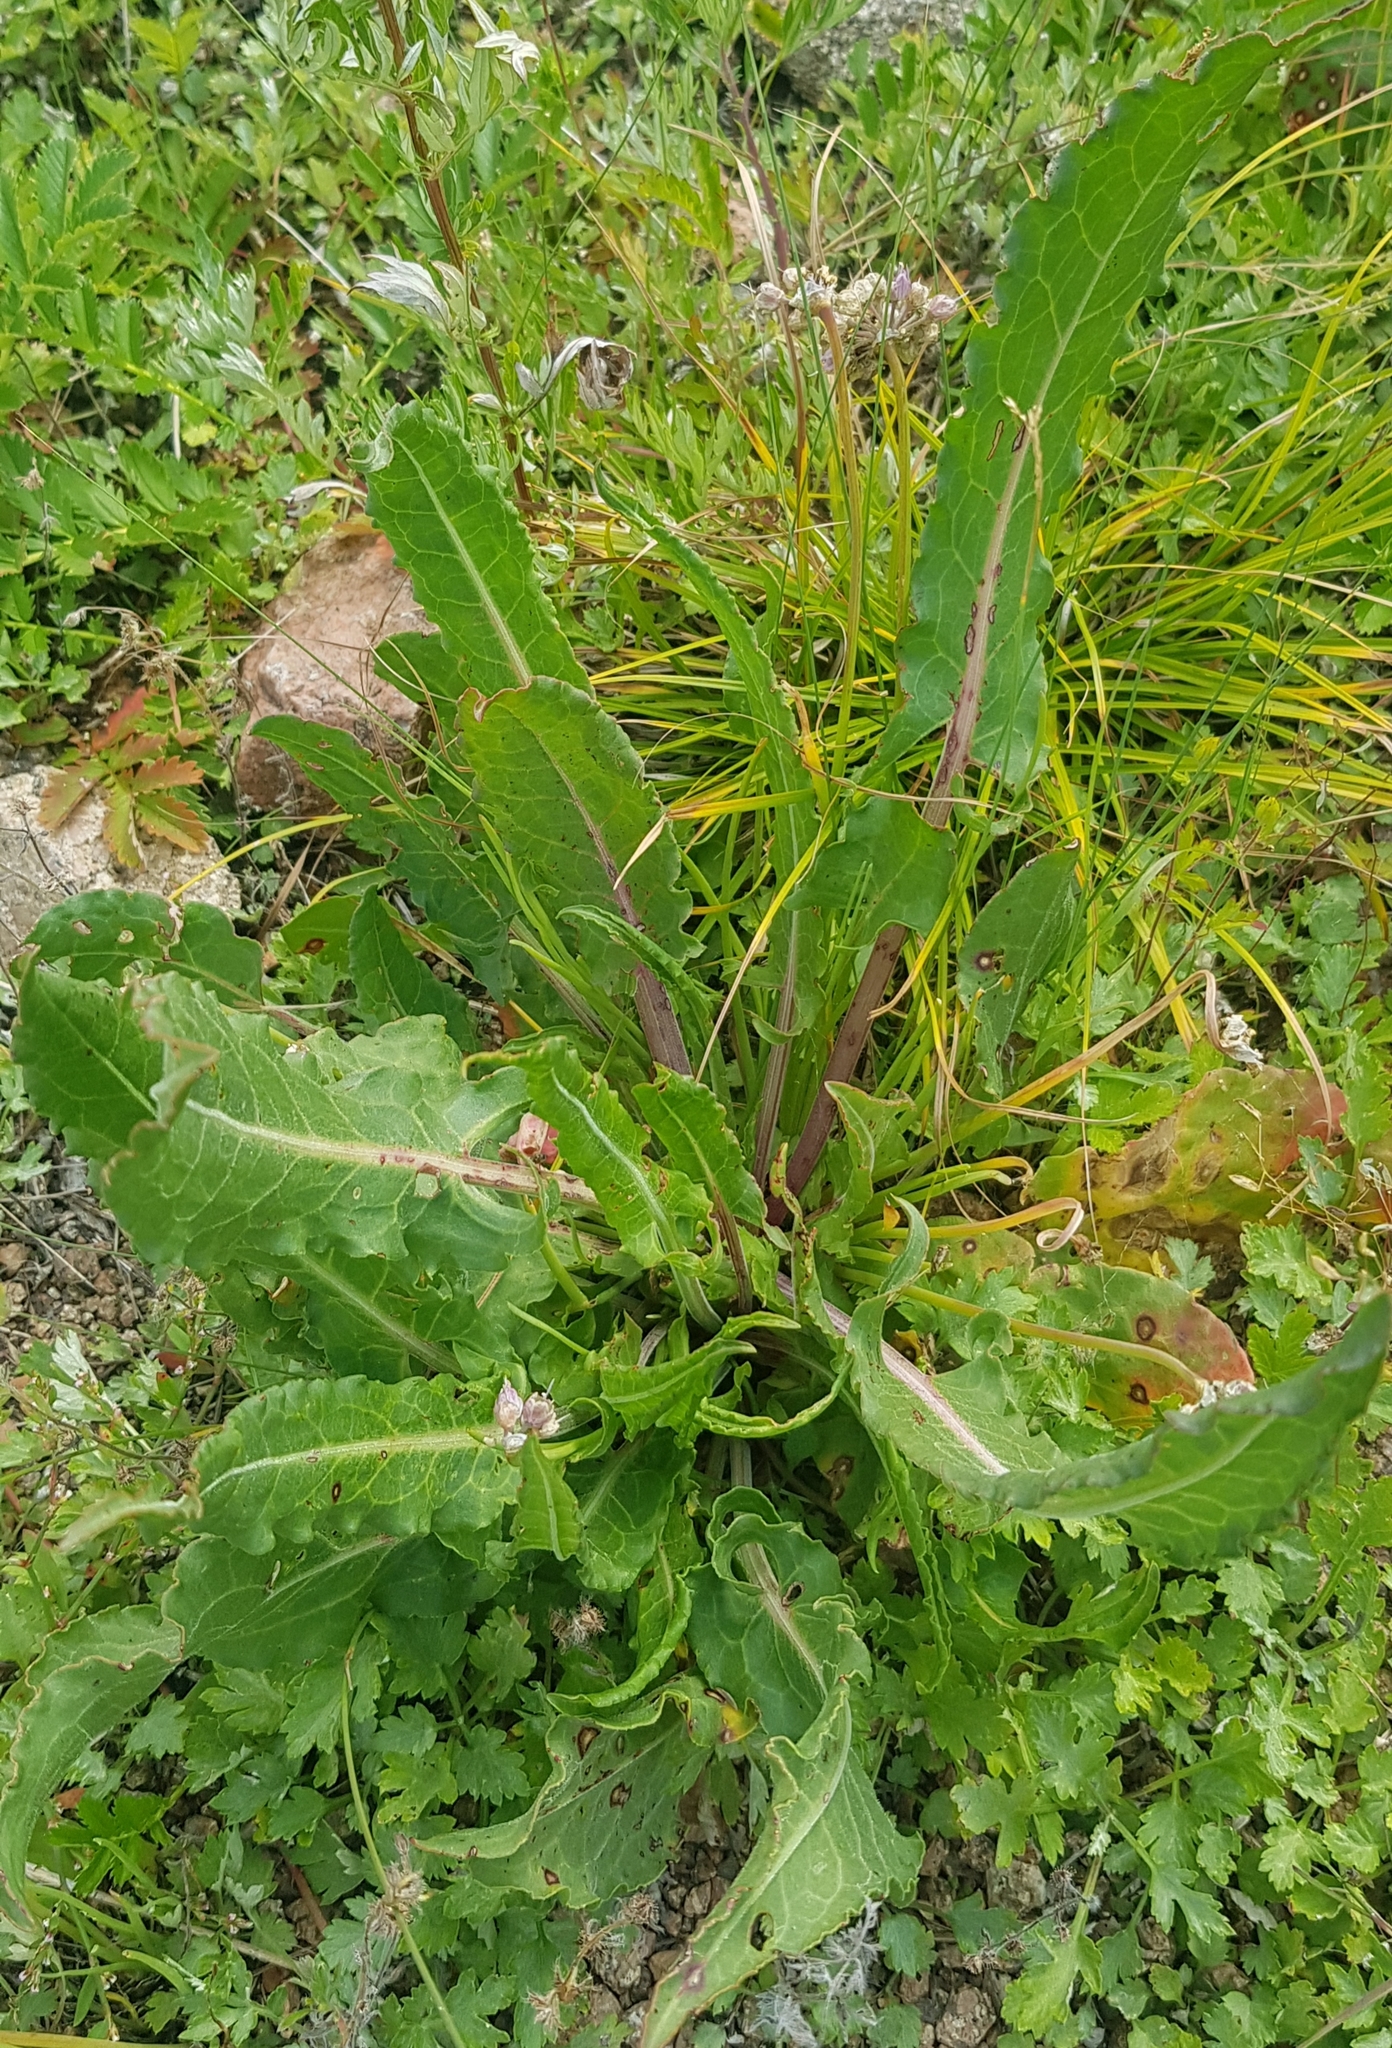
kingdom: Plantae
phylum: Tracheophyta
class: Magnoliopsida
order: Asterales
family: Asteraceae
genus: Sonchus
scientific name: Sonchus arvensis
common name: Perennial sow-thistle
